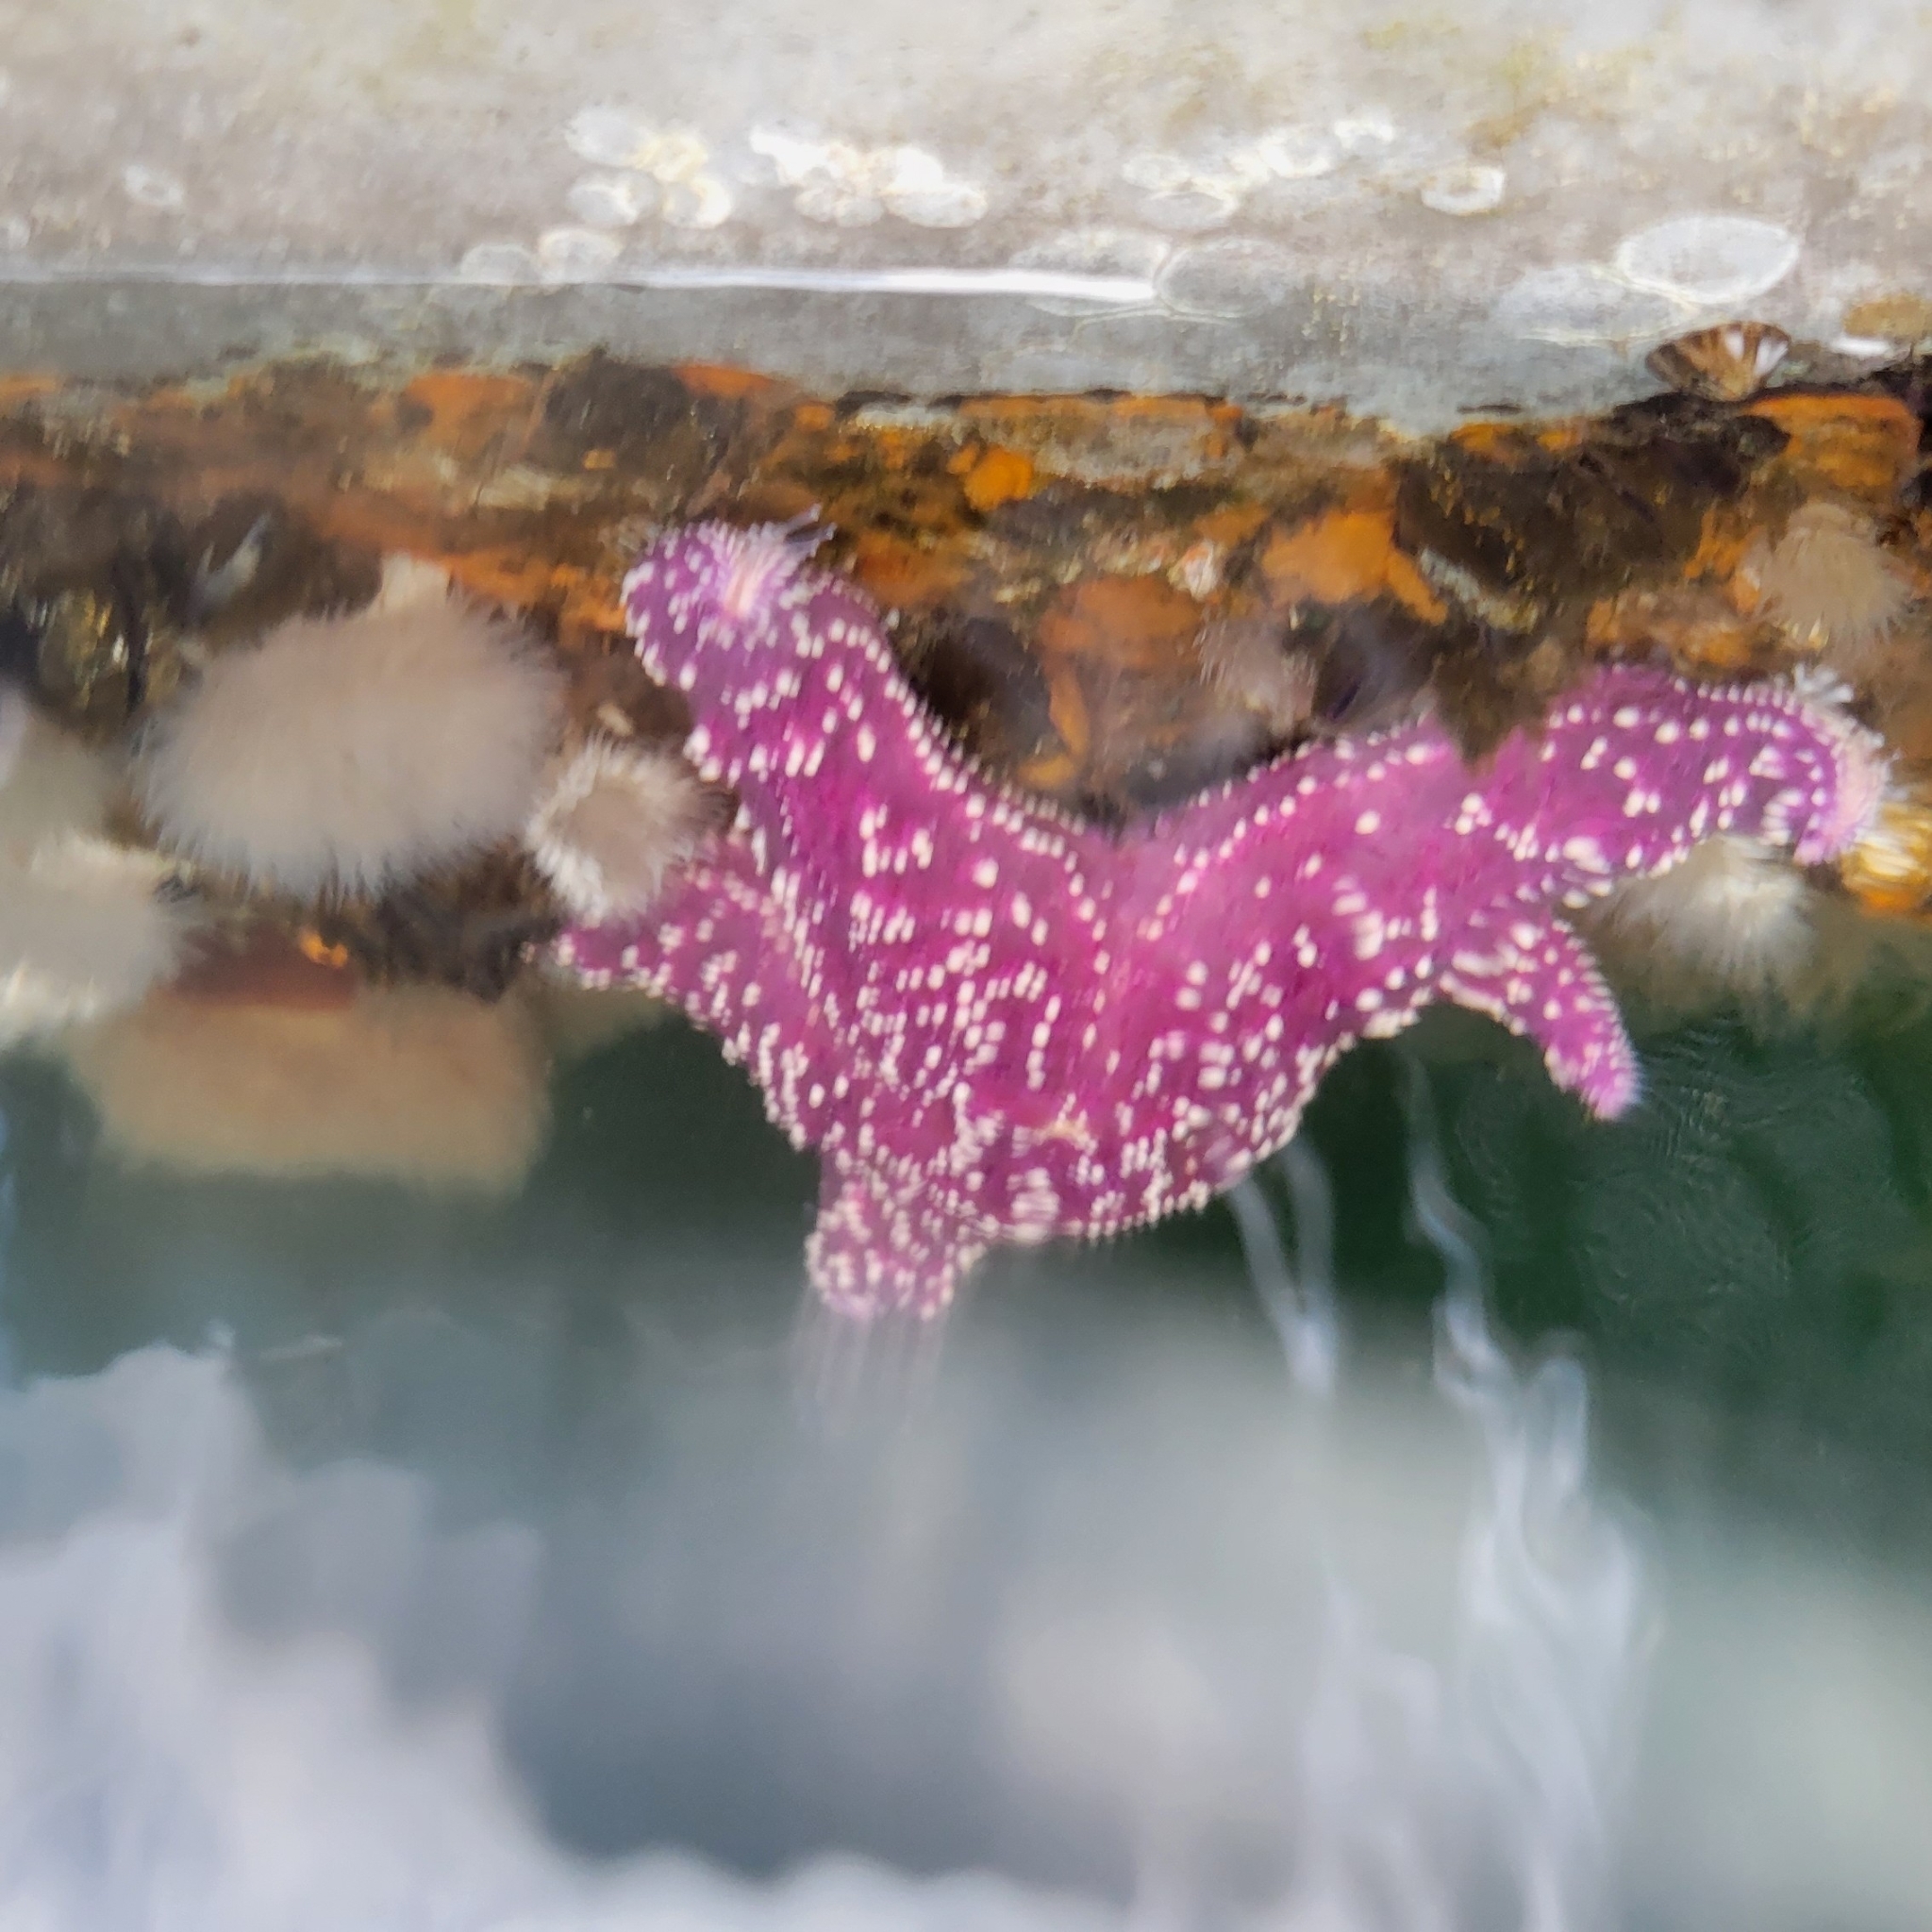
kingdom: Animalia
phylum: Echinodermata
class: Asteroidea
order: Forcipulatida
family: Asteriidae
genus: Pisaster
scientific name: Pisaster ochraceus
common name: Ochre stars
